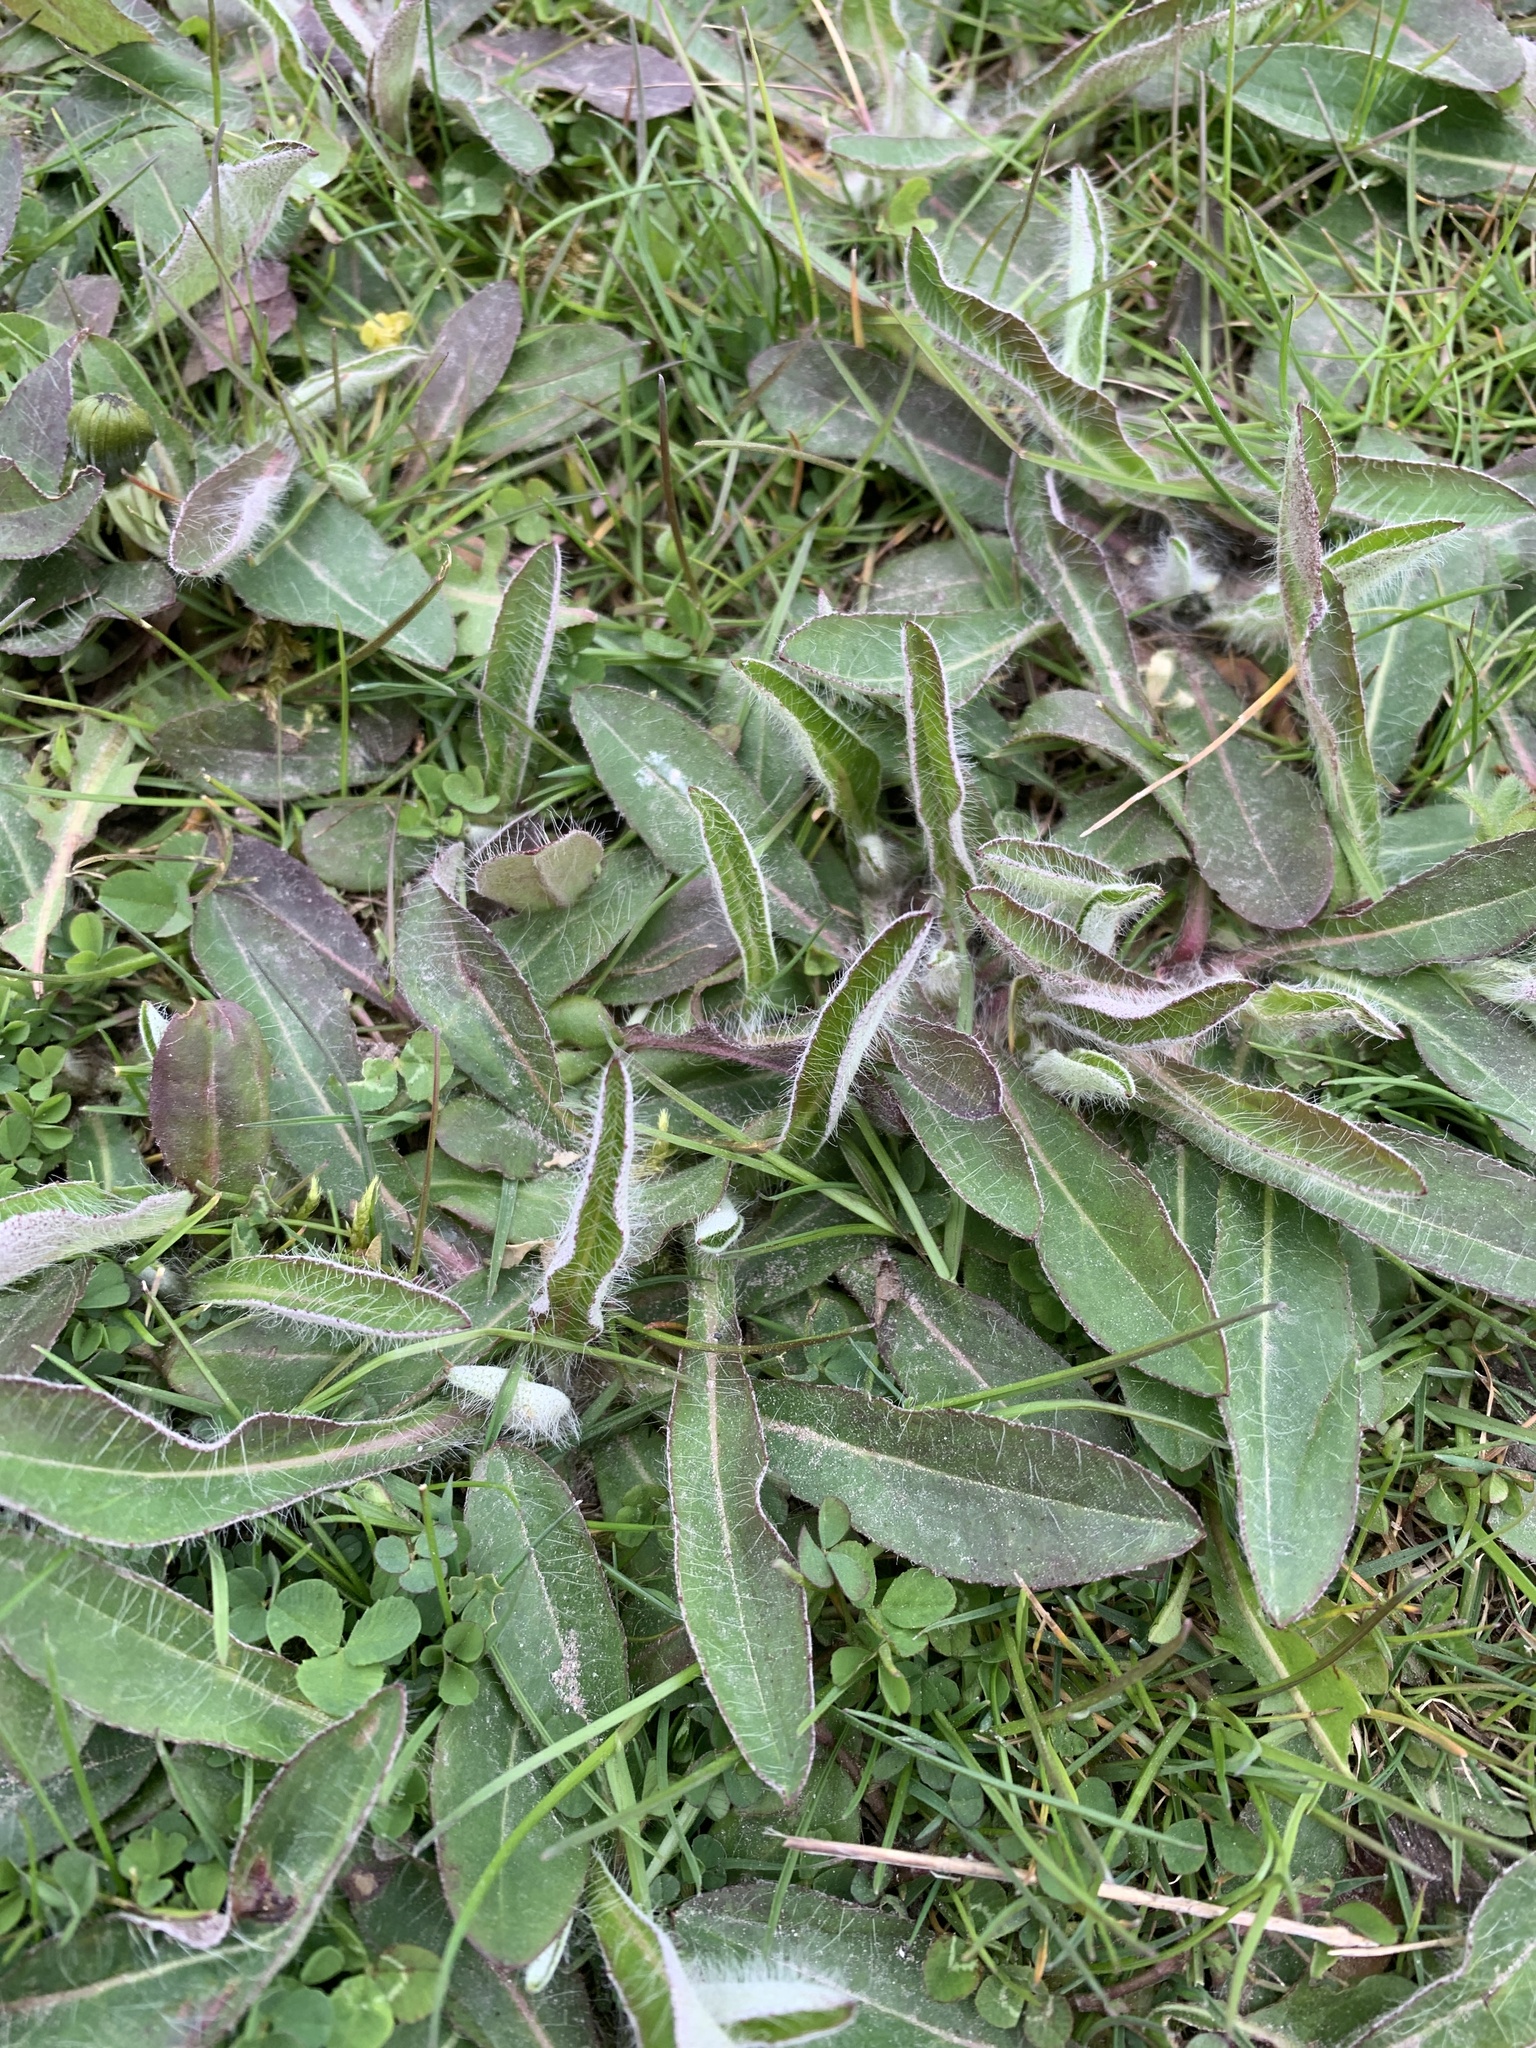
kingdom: Plantae
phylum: Tracheophyta
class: Magnoliopsida
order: Asterales
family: Asteraceae
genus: Pilosella
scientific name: Pilosella officinarum
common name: Mouse-ear hawkweed
